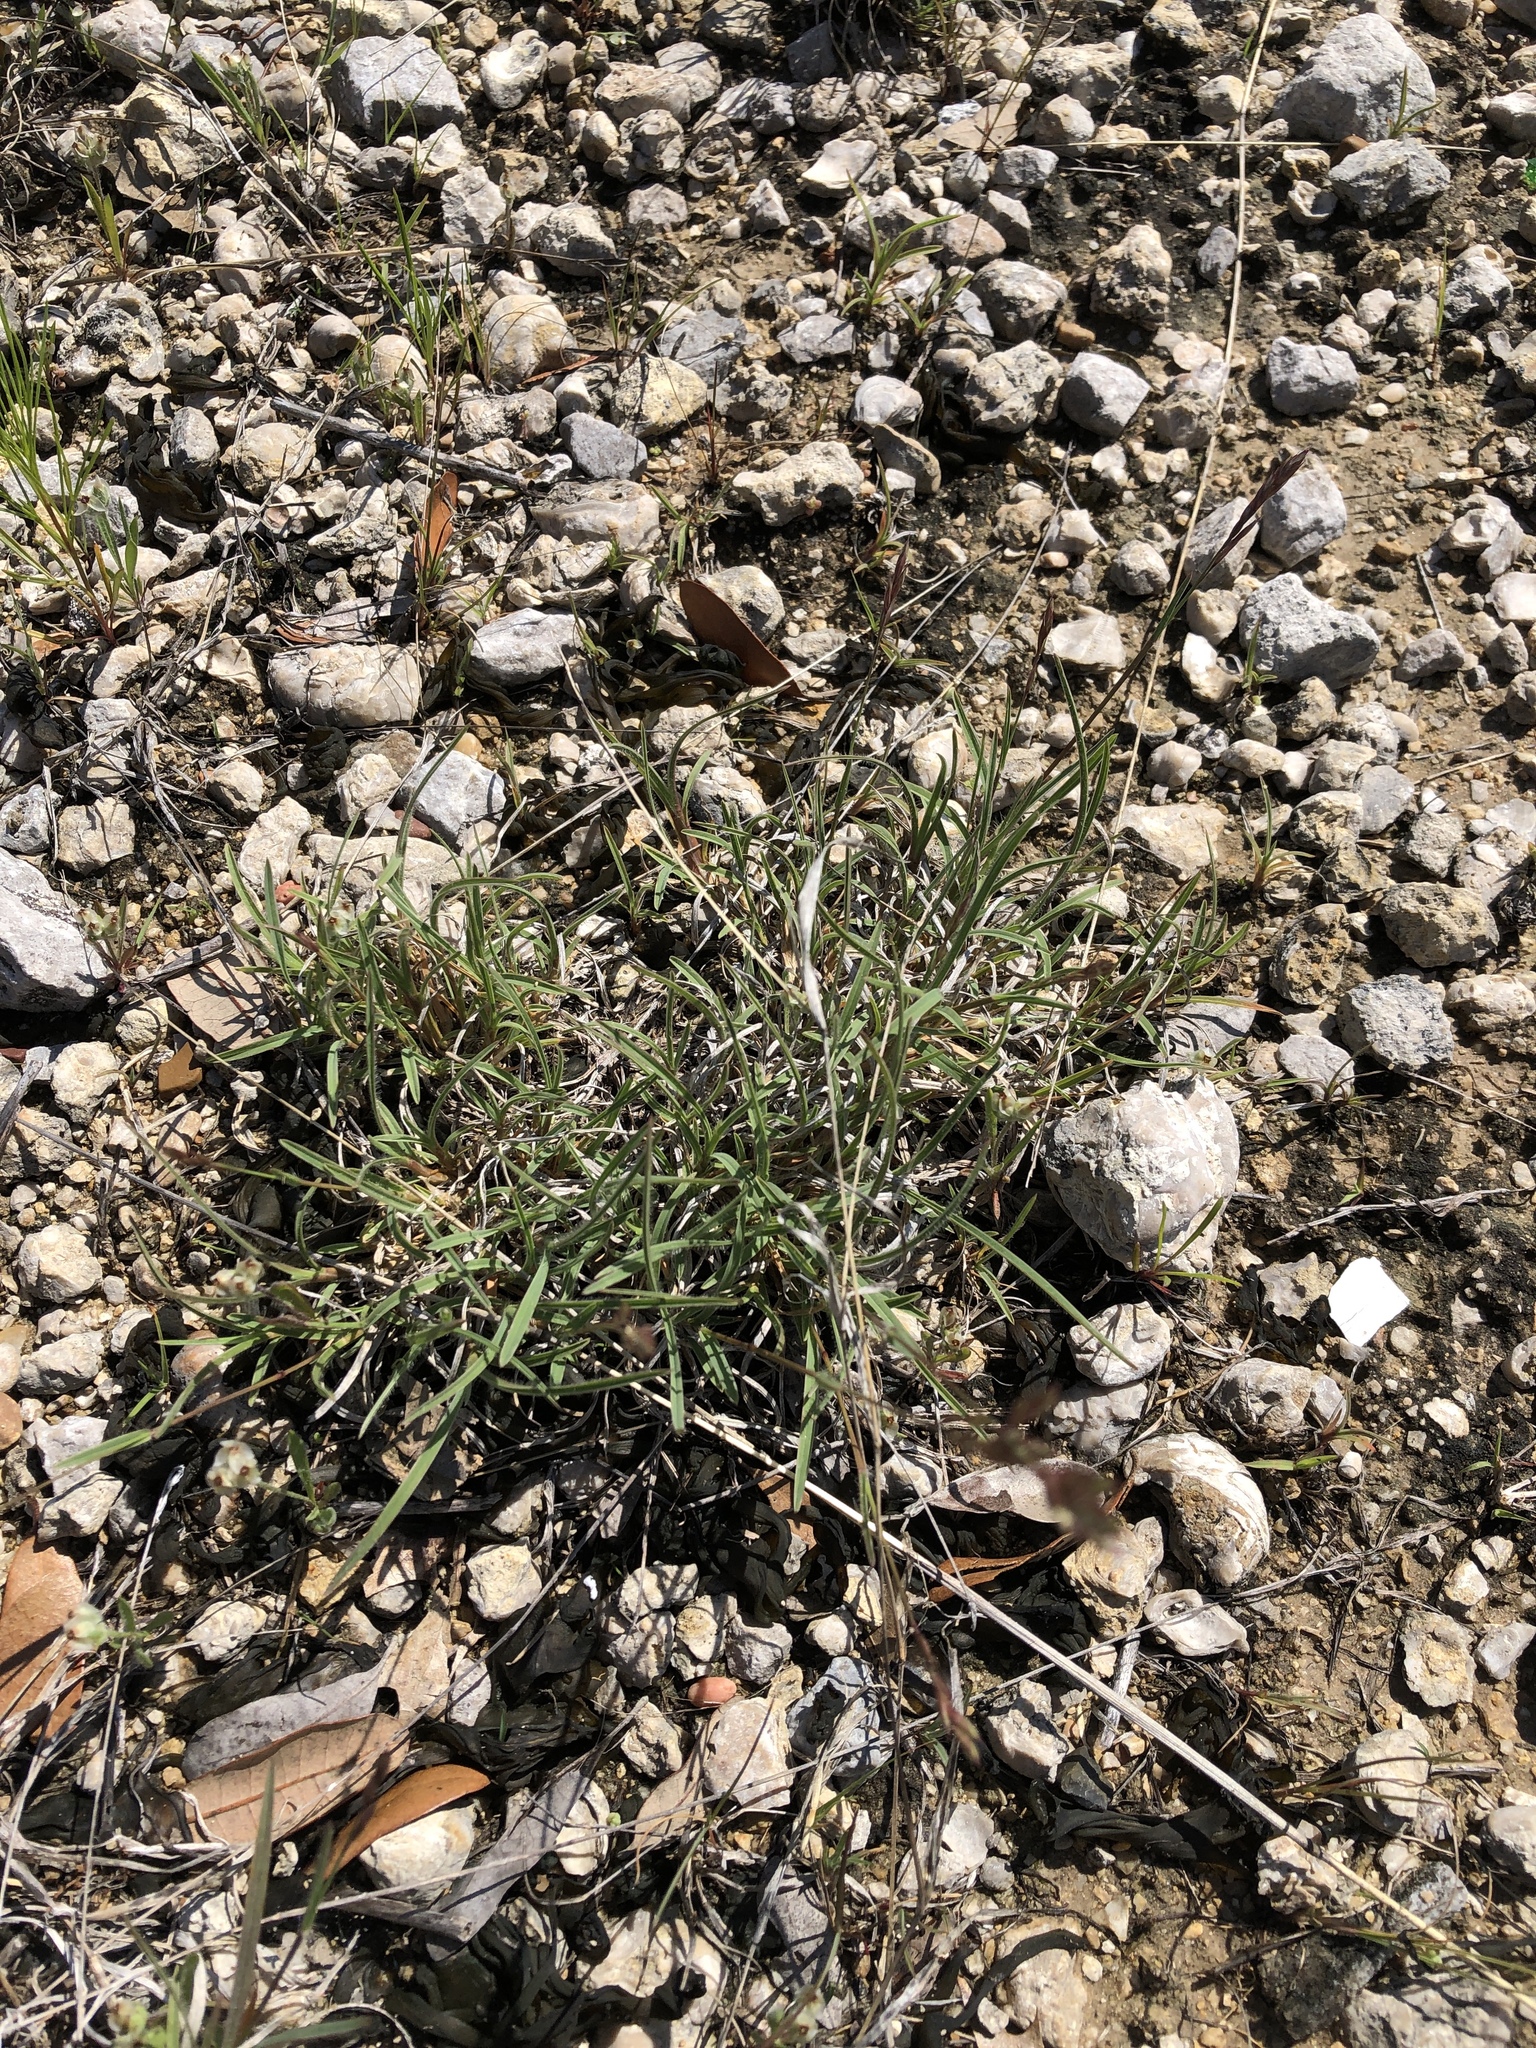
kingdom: Plantae
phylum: Tracheophyta
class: Liliopsida
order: Poales
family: Poaceae
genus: Erioneuron
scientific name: Erioneuron pilosum
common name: Hairy woolly grass
